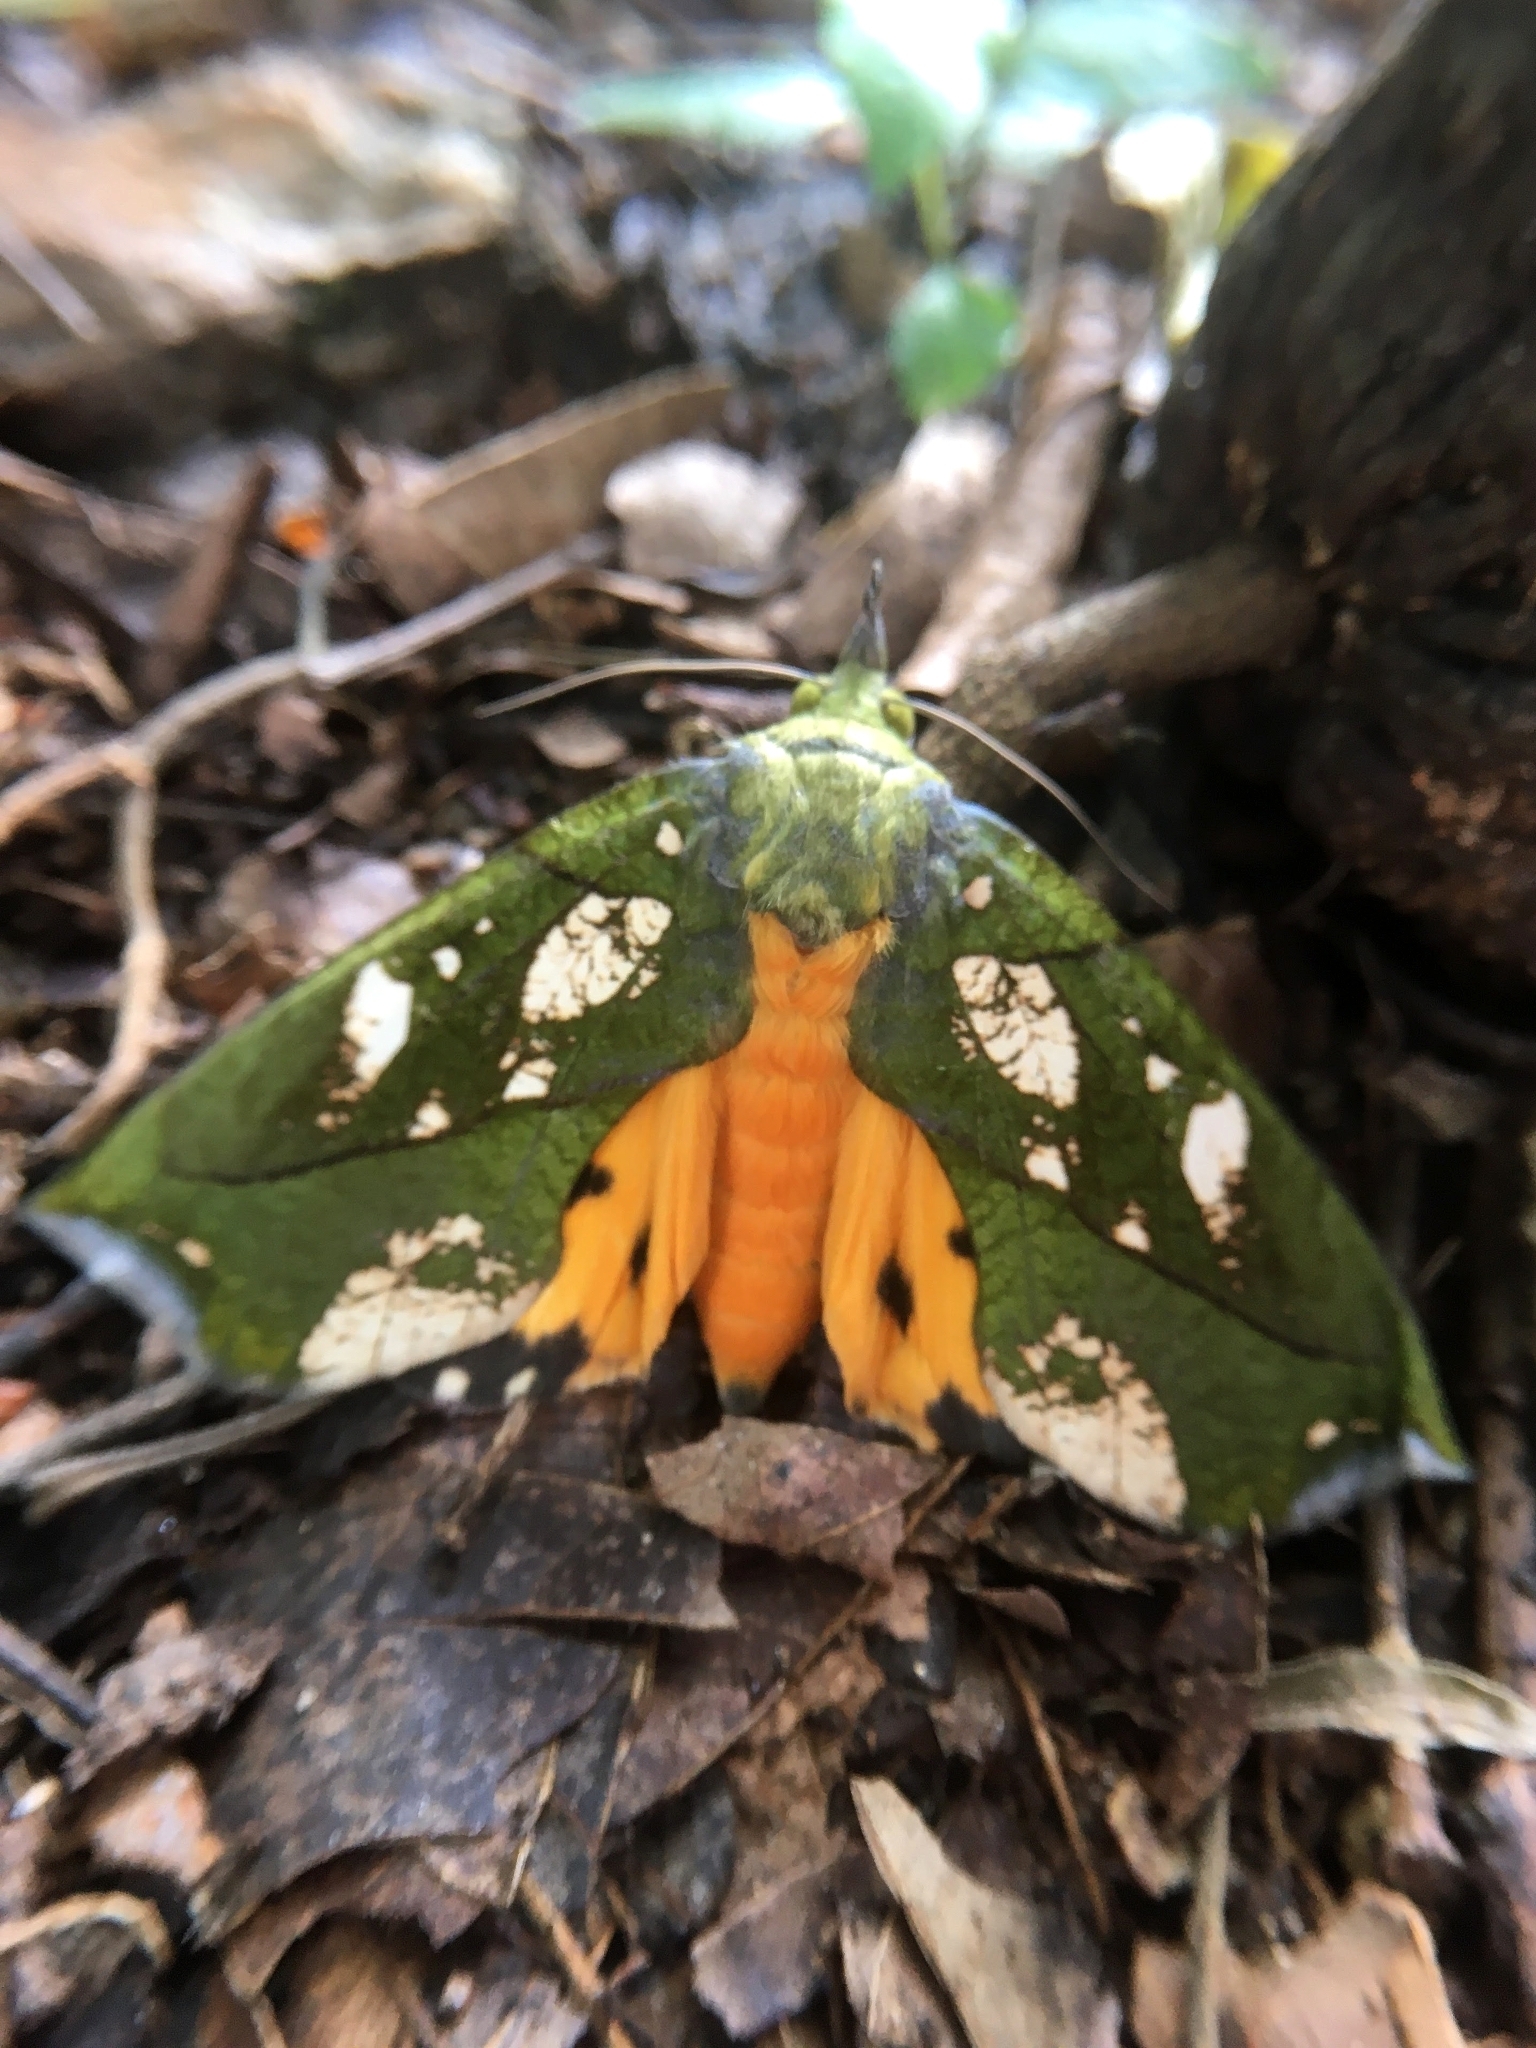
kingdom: Animalia
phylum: Arthropoda
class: Insecta
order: Lepidoptera
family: Erebidae
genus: Eudocima
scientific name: Eudocima hypermnestra
